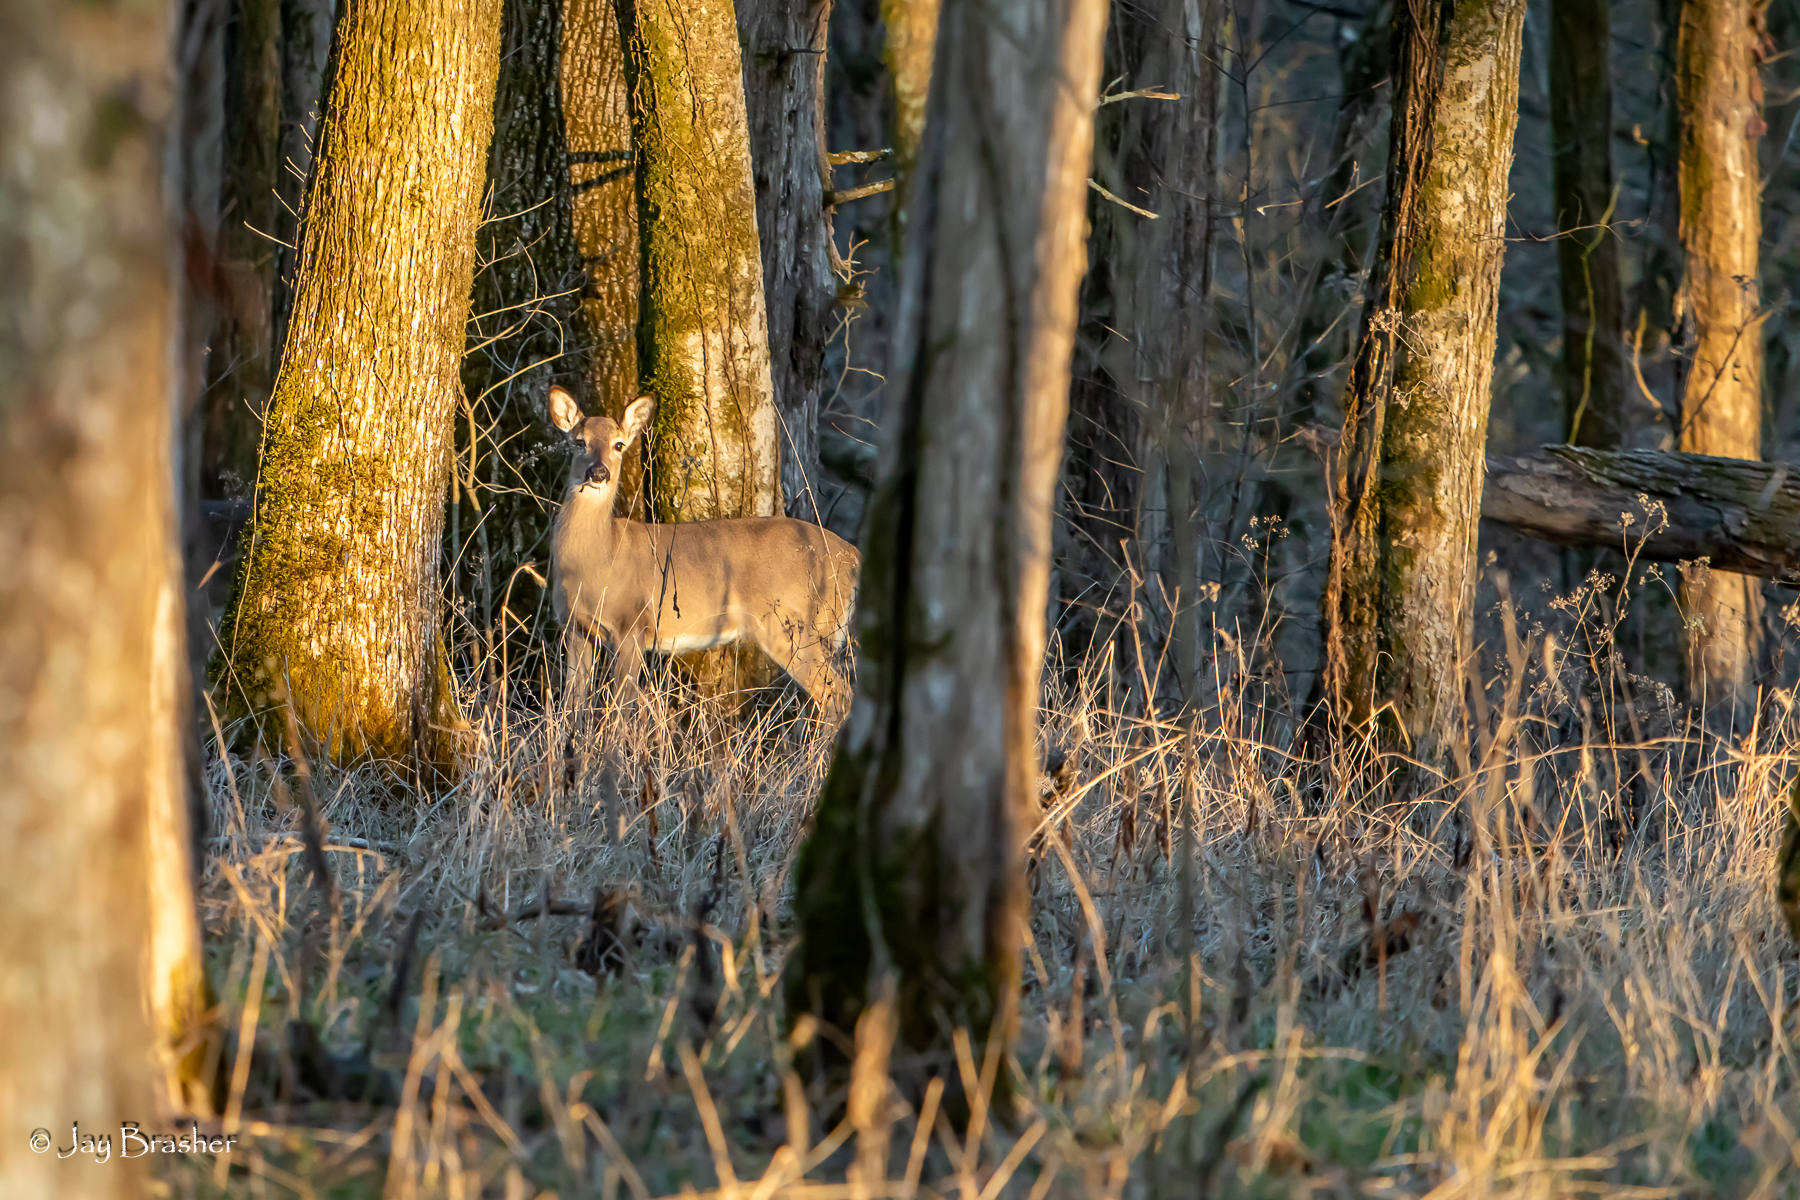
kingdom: Animalia
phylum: Chordata
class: Mammalia
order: Artiodactyla
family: Cervidae
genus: Odocoileus
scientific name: Odocoileus virginianus
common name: White-tailed deer
